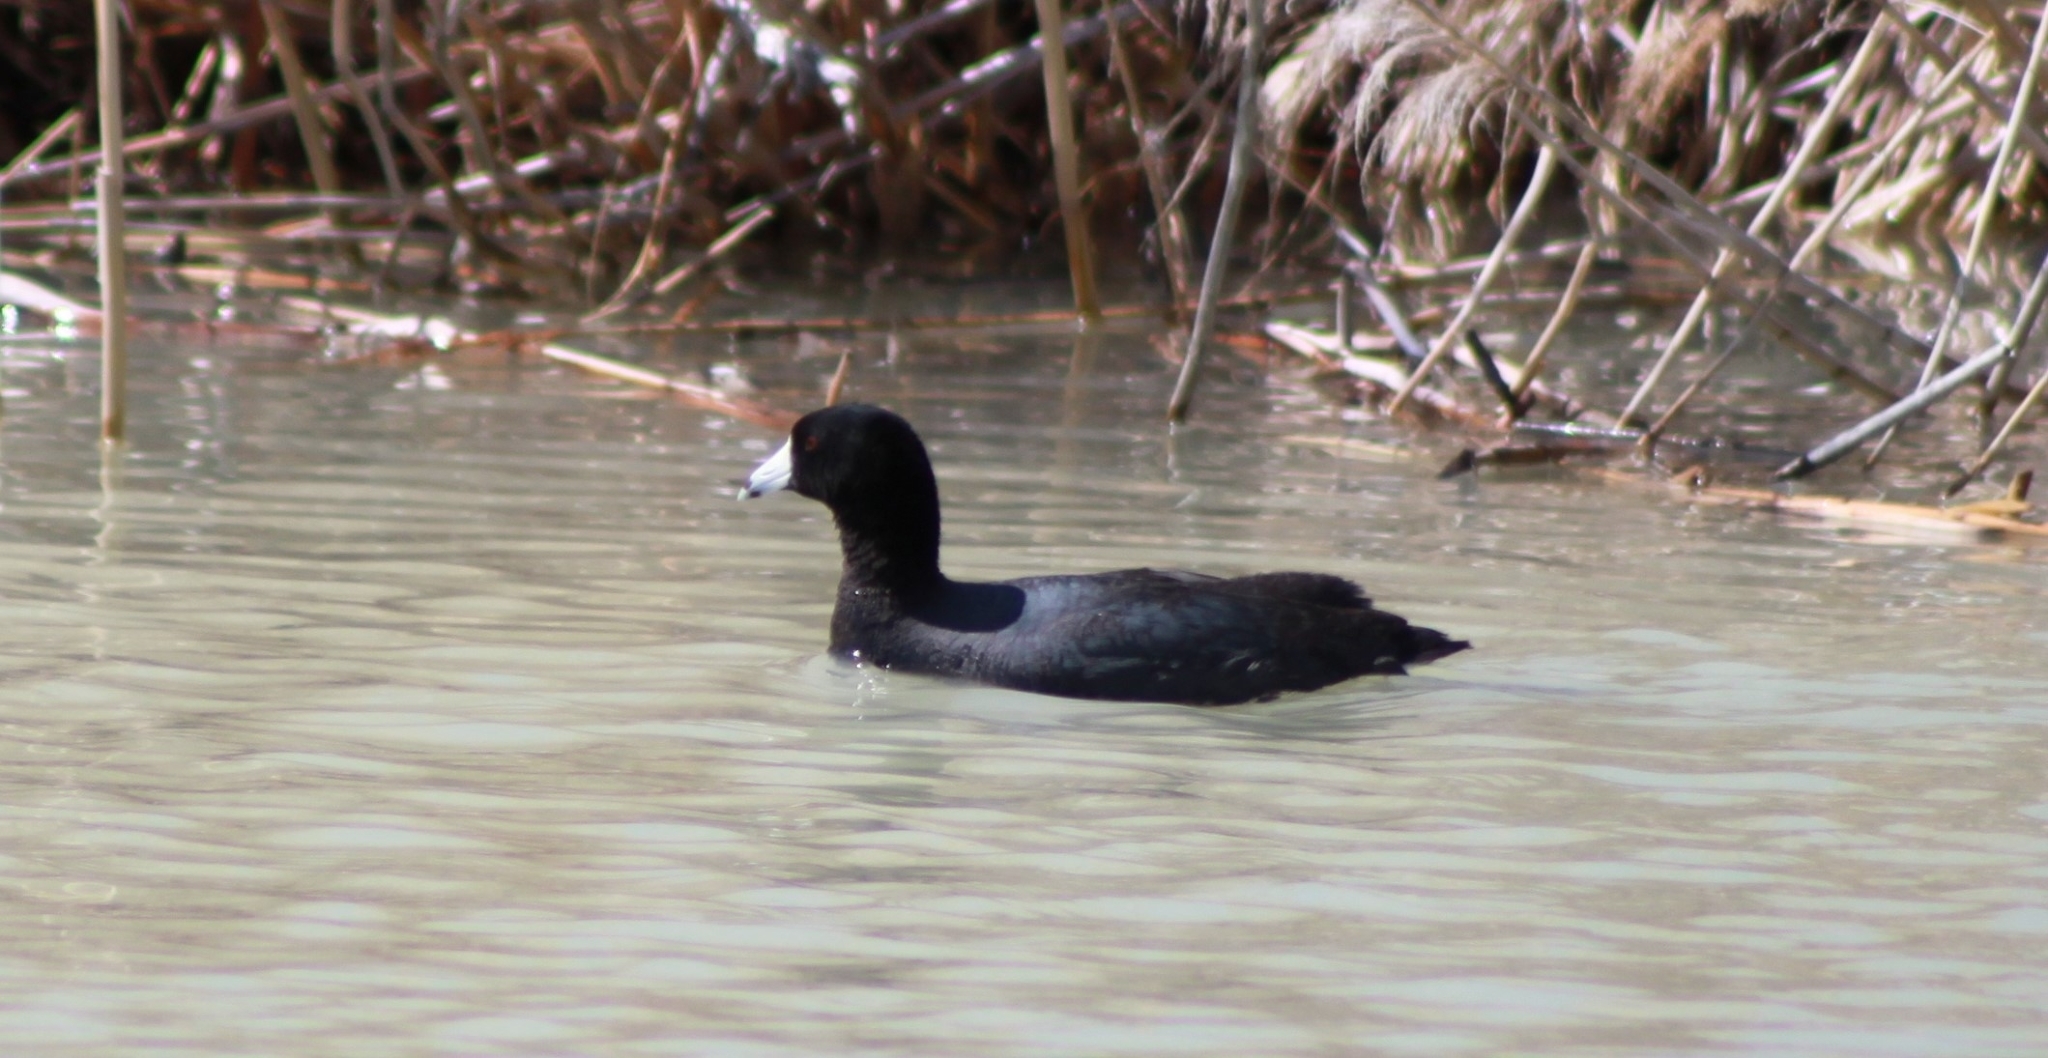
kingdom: Animalia
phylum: Chordata
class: Aves
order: Gruiformes
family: Rallidae
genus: Fulica
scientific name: Fulica americana
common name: American coot
